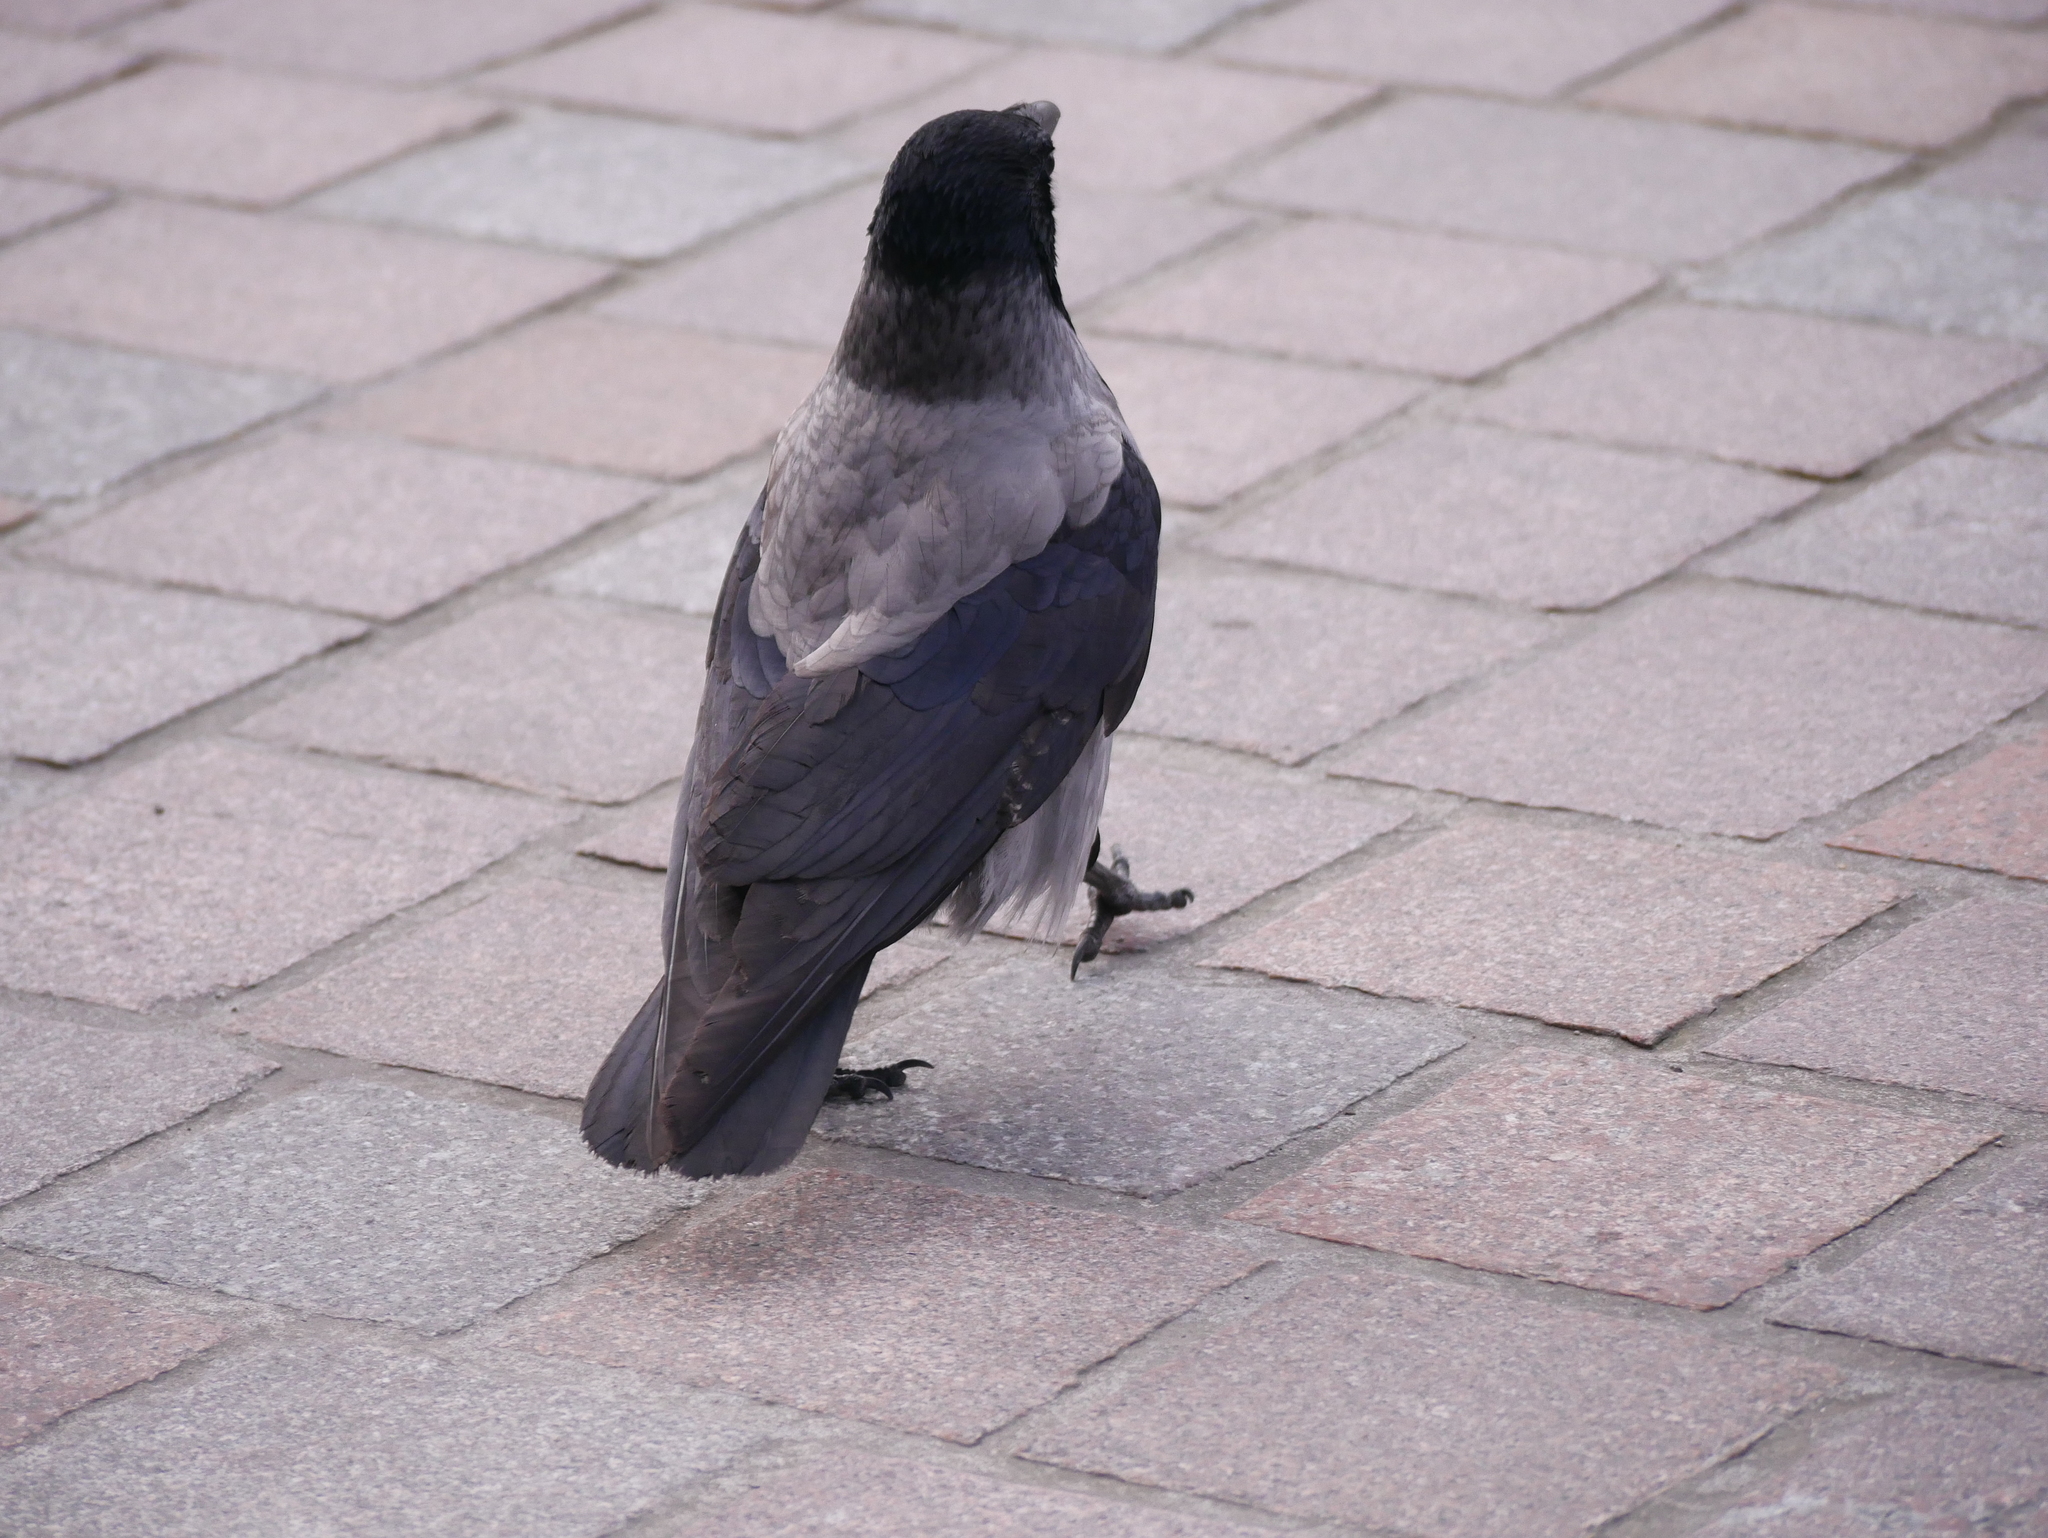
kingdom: Animalia
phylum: Chordata
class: Aves
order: Passeriformes
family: Corvidae
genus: Corvus
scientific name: Corvus cornix
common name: Hooded crow
